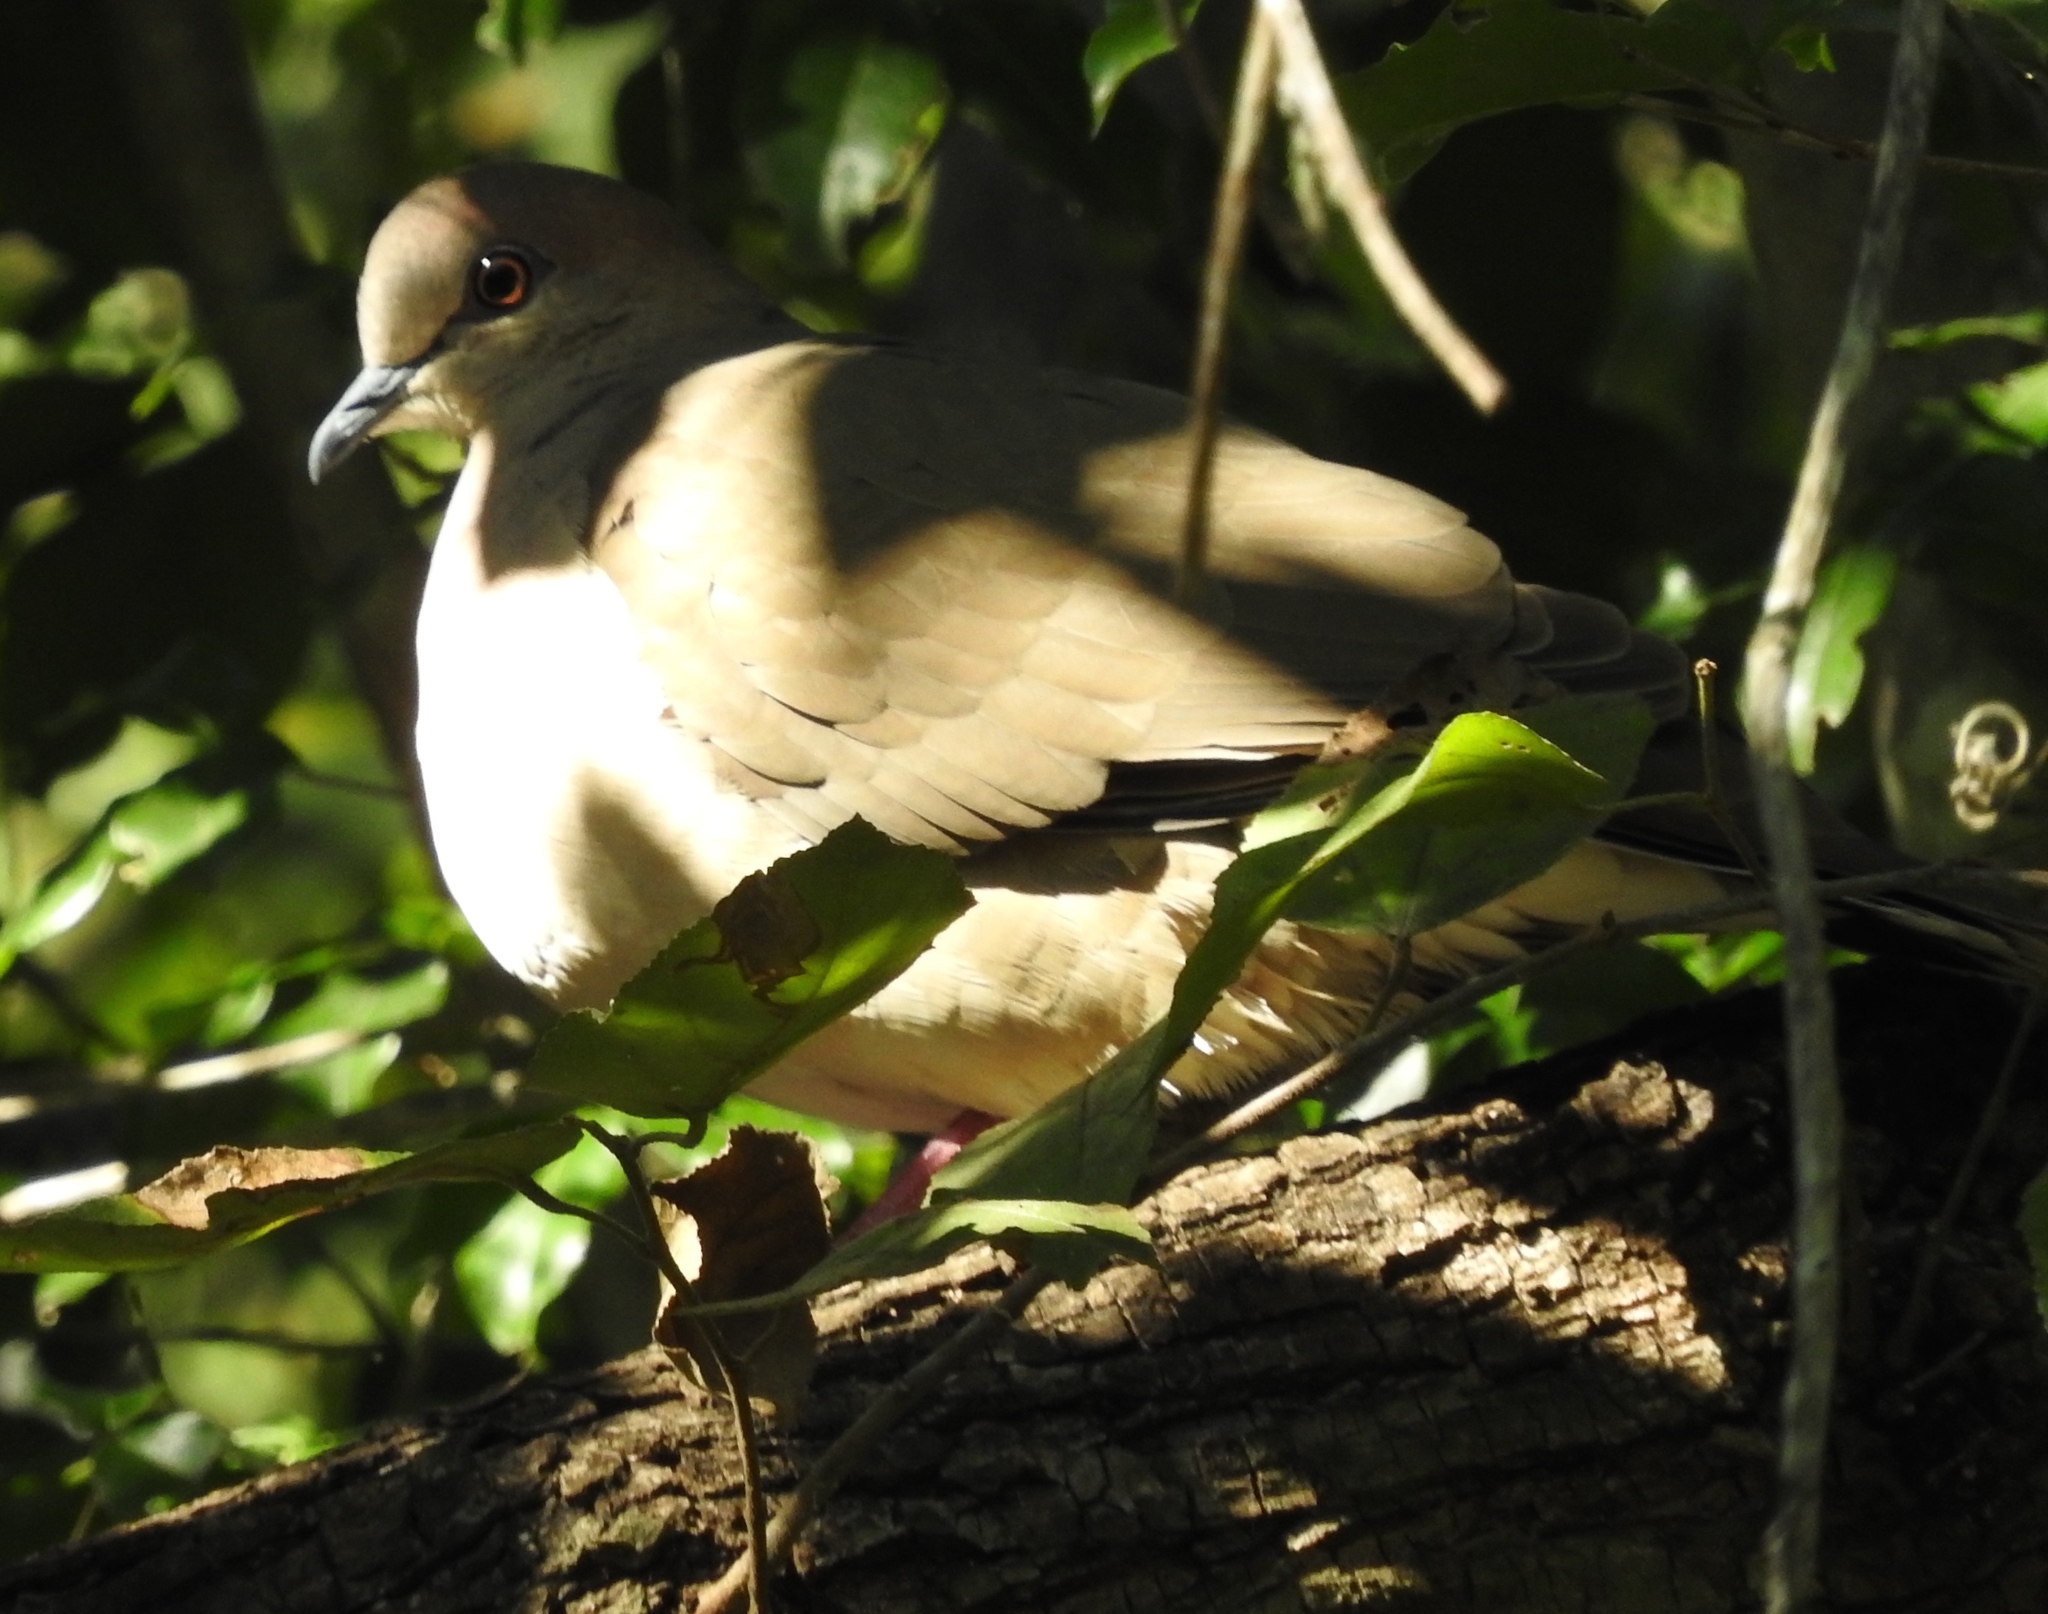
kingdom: Animalia
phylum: Chordata
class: Aves
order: Columbiformes
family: Columbidae
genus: Leptotila
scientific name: Leptotila verreauxi
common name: White-tipped dove
